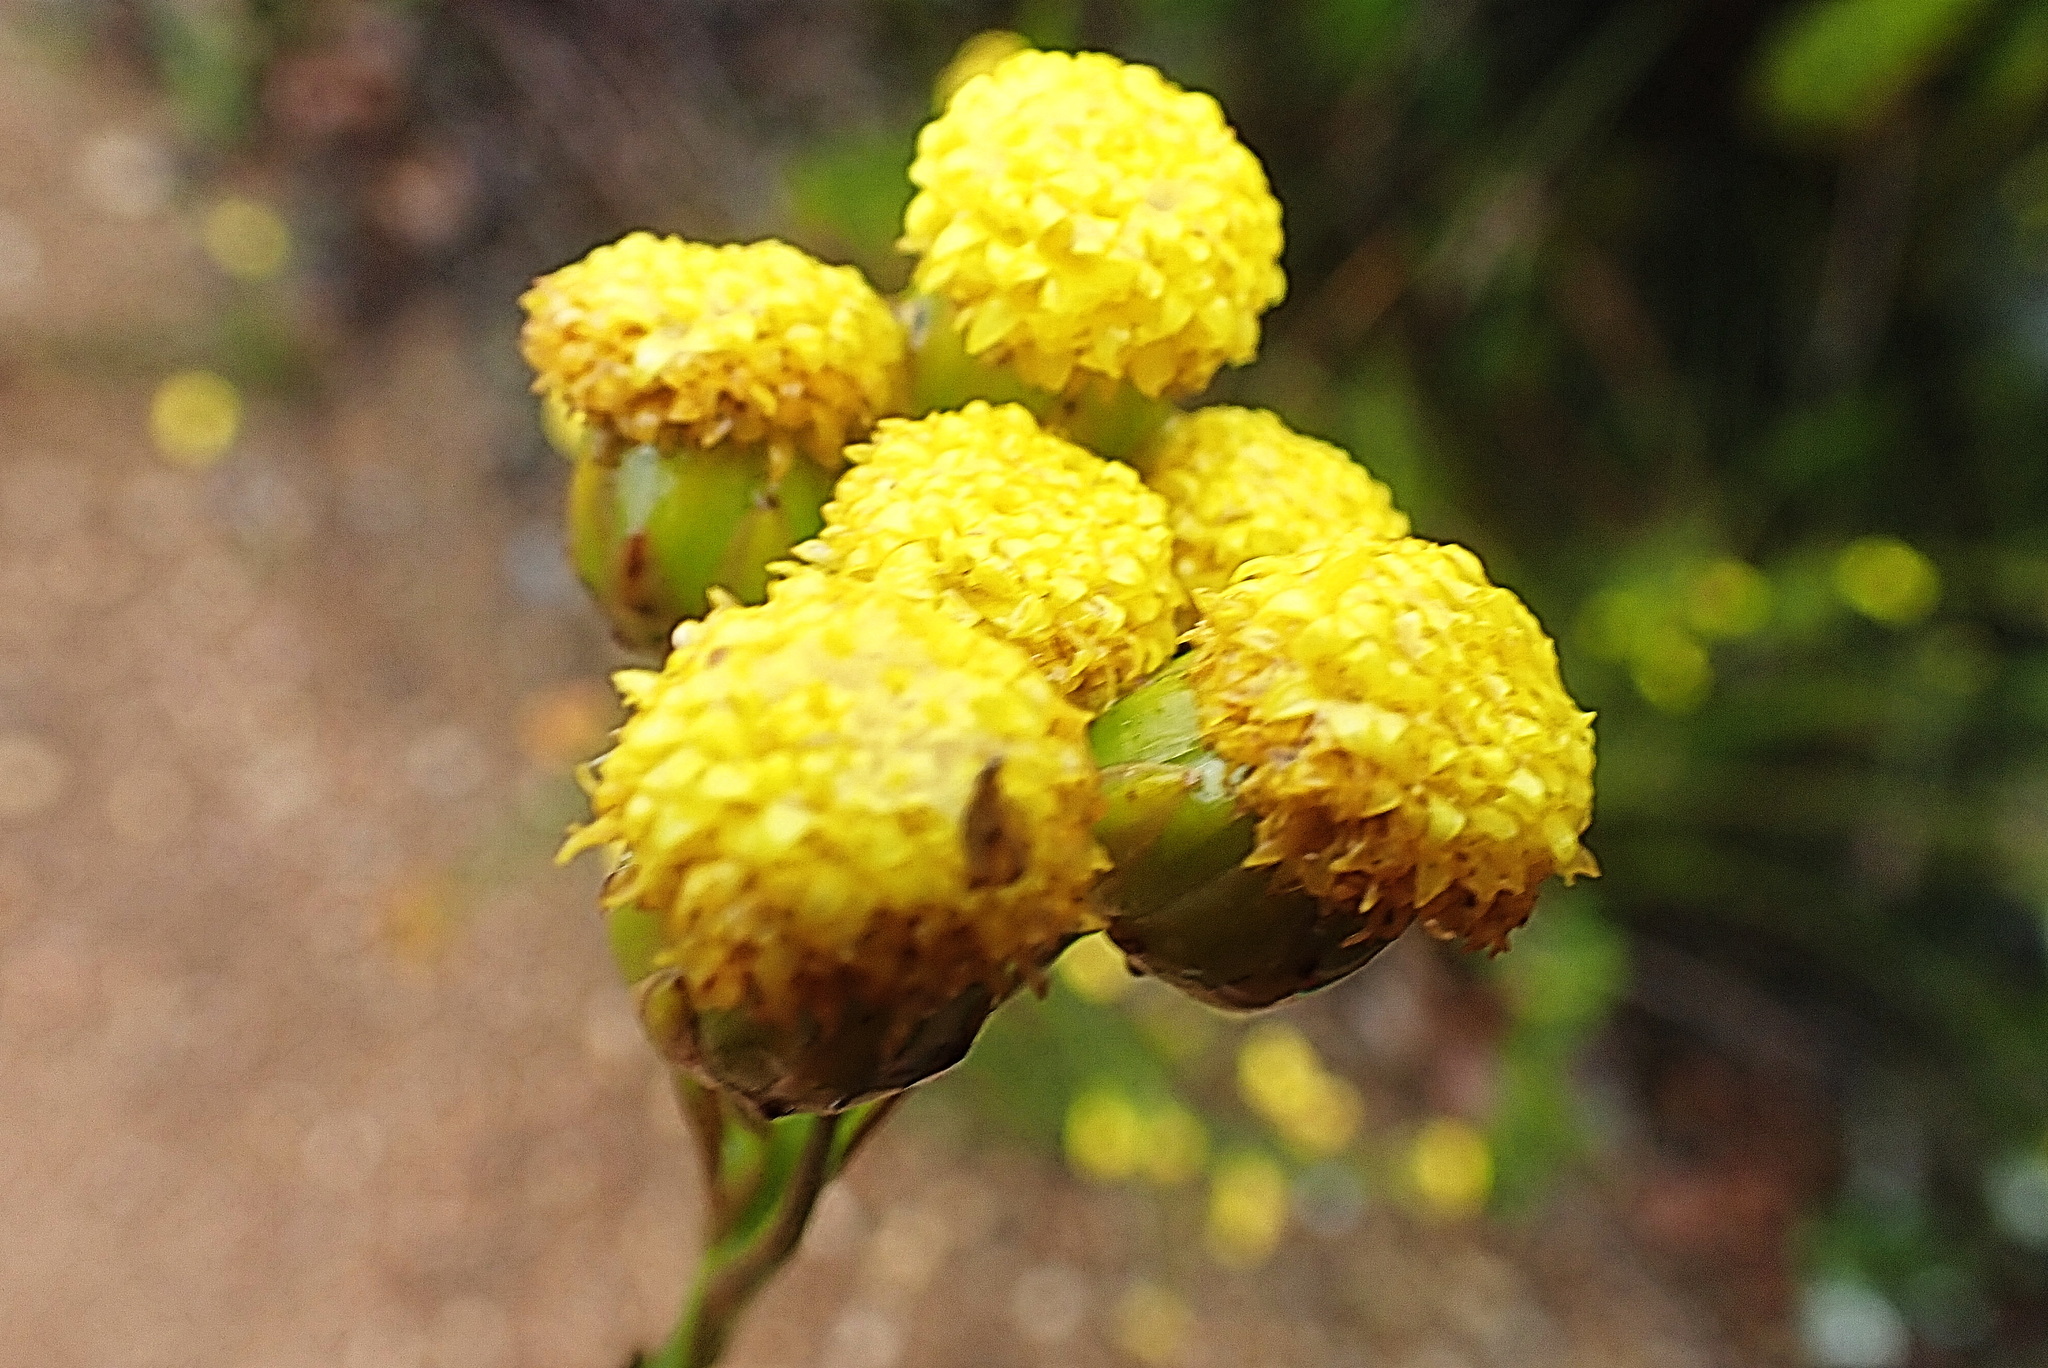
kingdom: Plantae
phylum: Tracheophyta
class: Magnoliopsida
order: Asterales
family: Asteraceae
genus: Athanasia
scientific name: Athanasia linifolia
